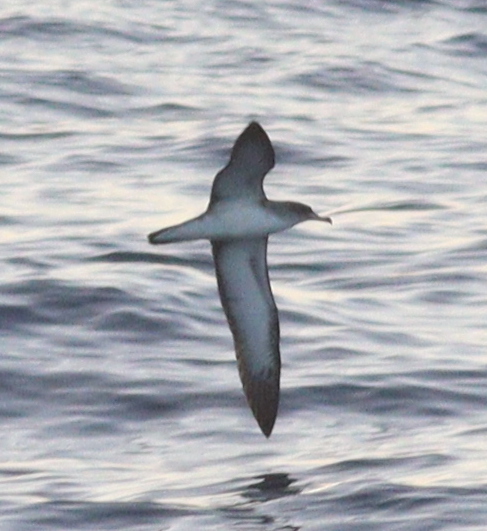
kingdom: Animalia
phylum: Chordata
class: Aves
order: Procellariiformes
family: Procellariidae
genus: Calonectris
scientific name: Calonectris diomedea
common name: Cory's shearwater
